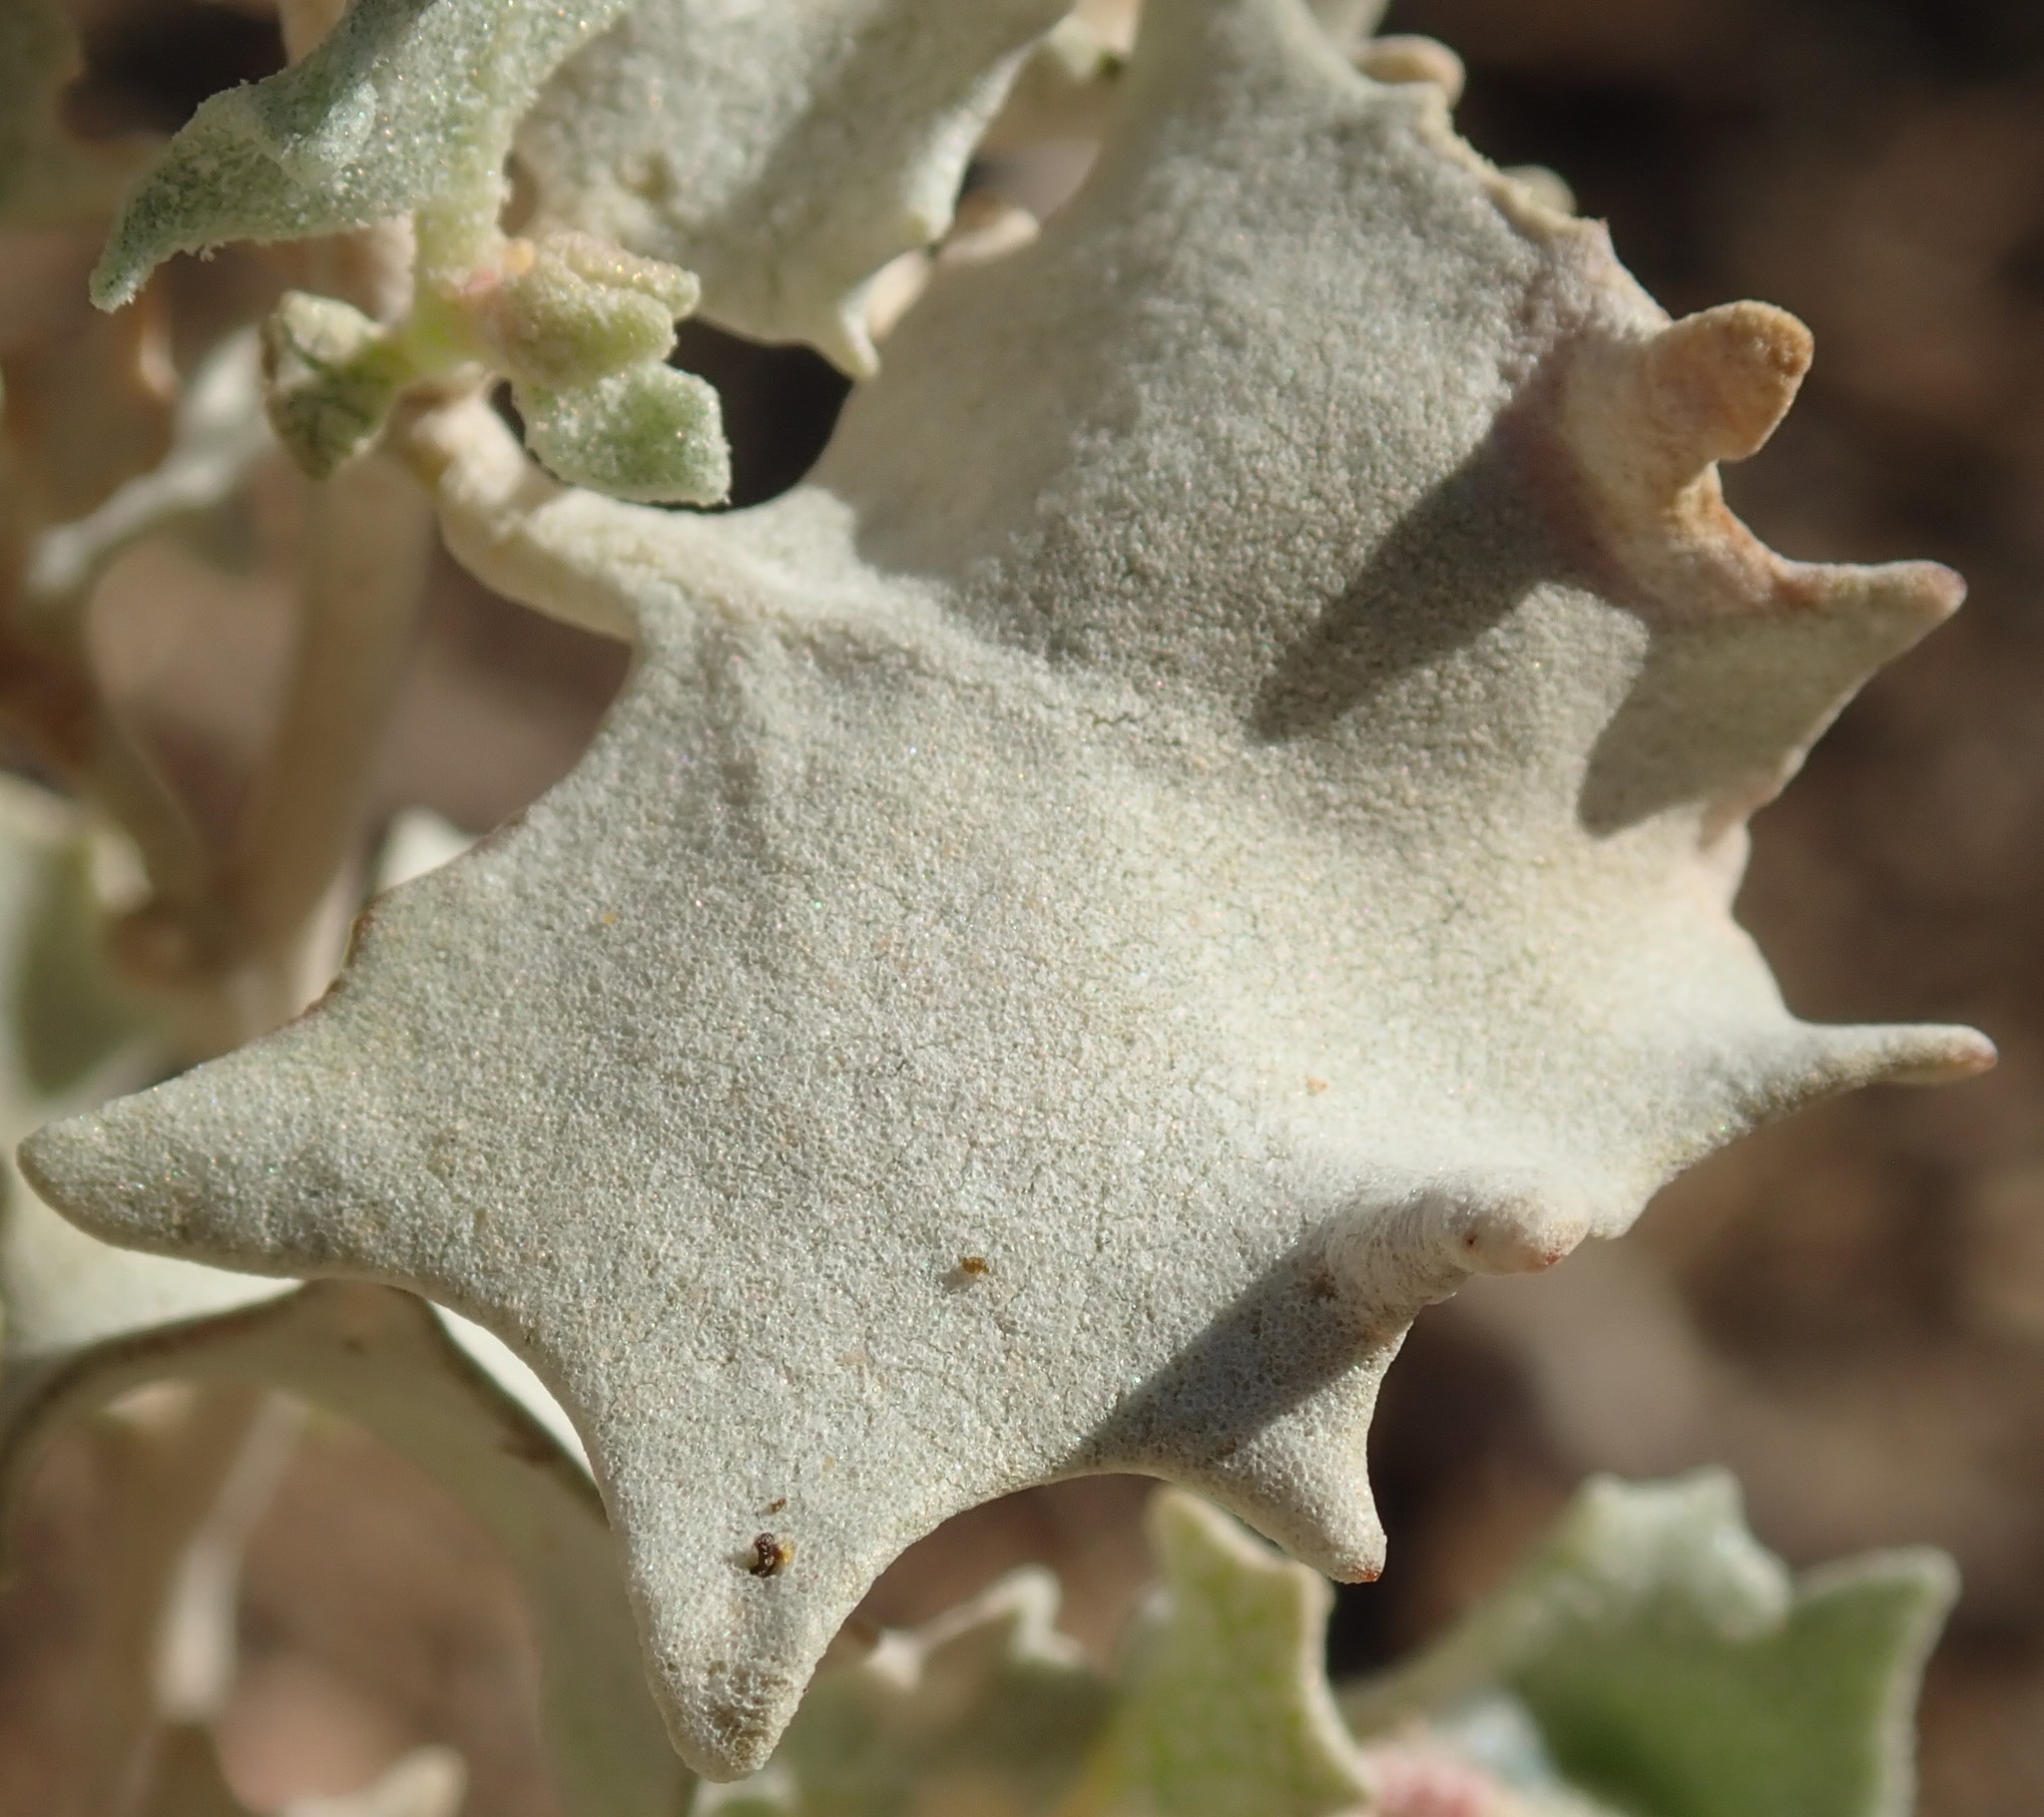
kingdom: Plantae
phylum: Tracheophyta
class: Magnoliopsida
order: Caryophyllales
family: Amaranthaceae
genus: Atriplex
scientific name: Atriplex hymenelytra
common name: Desert-holly
